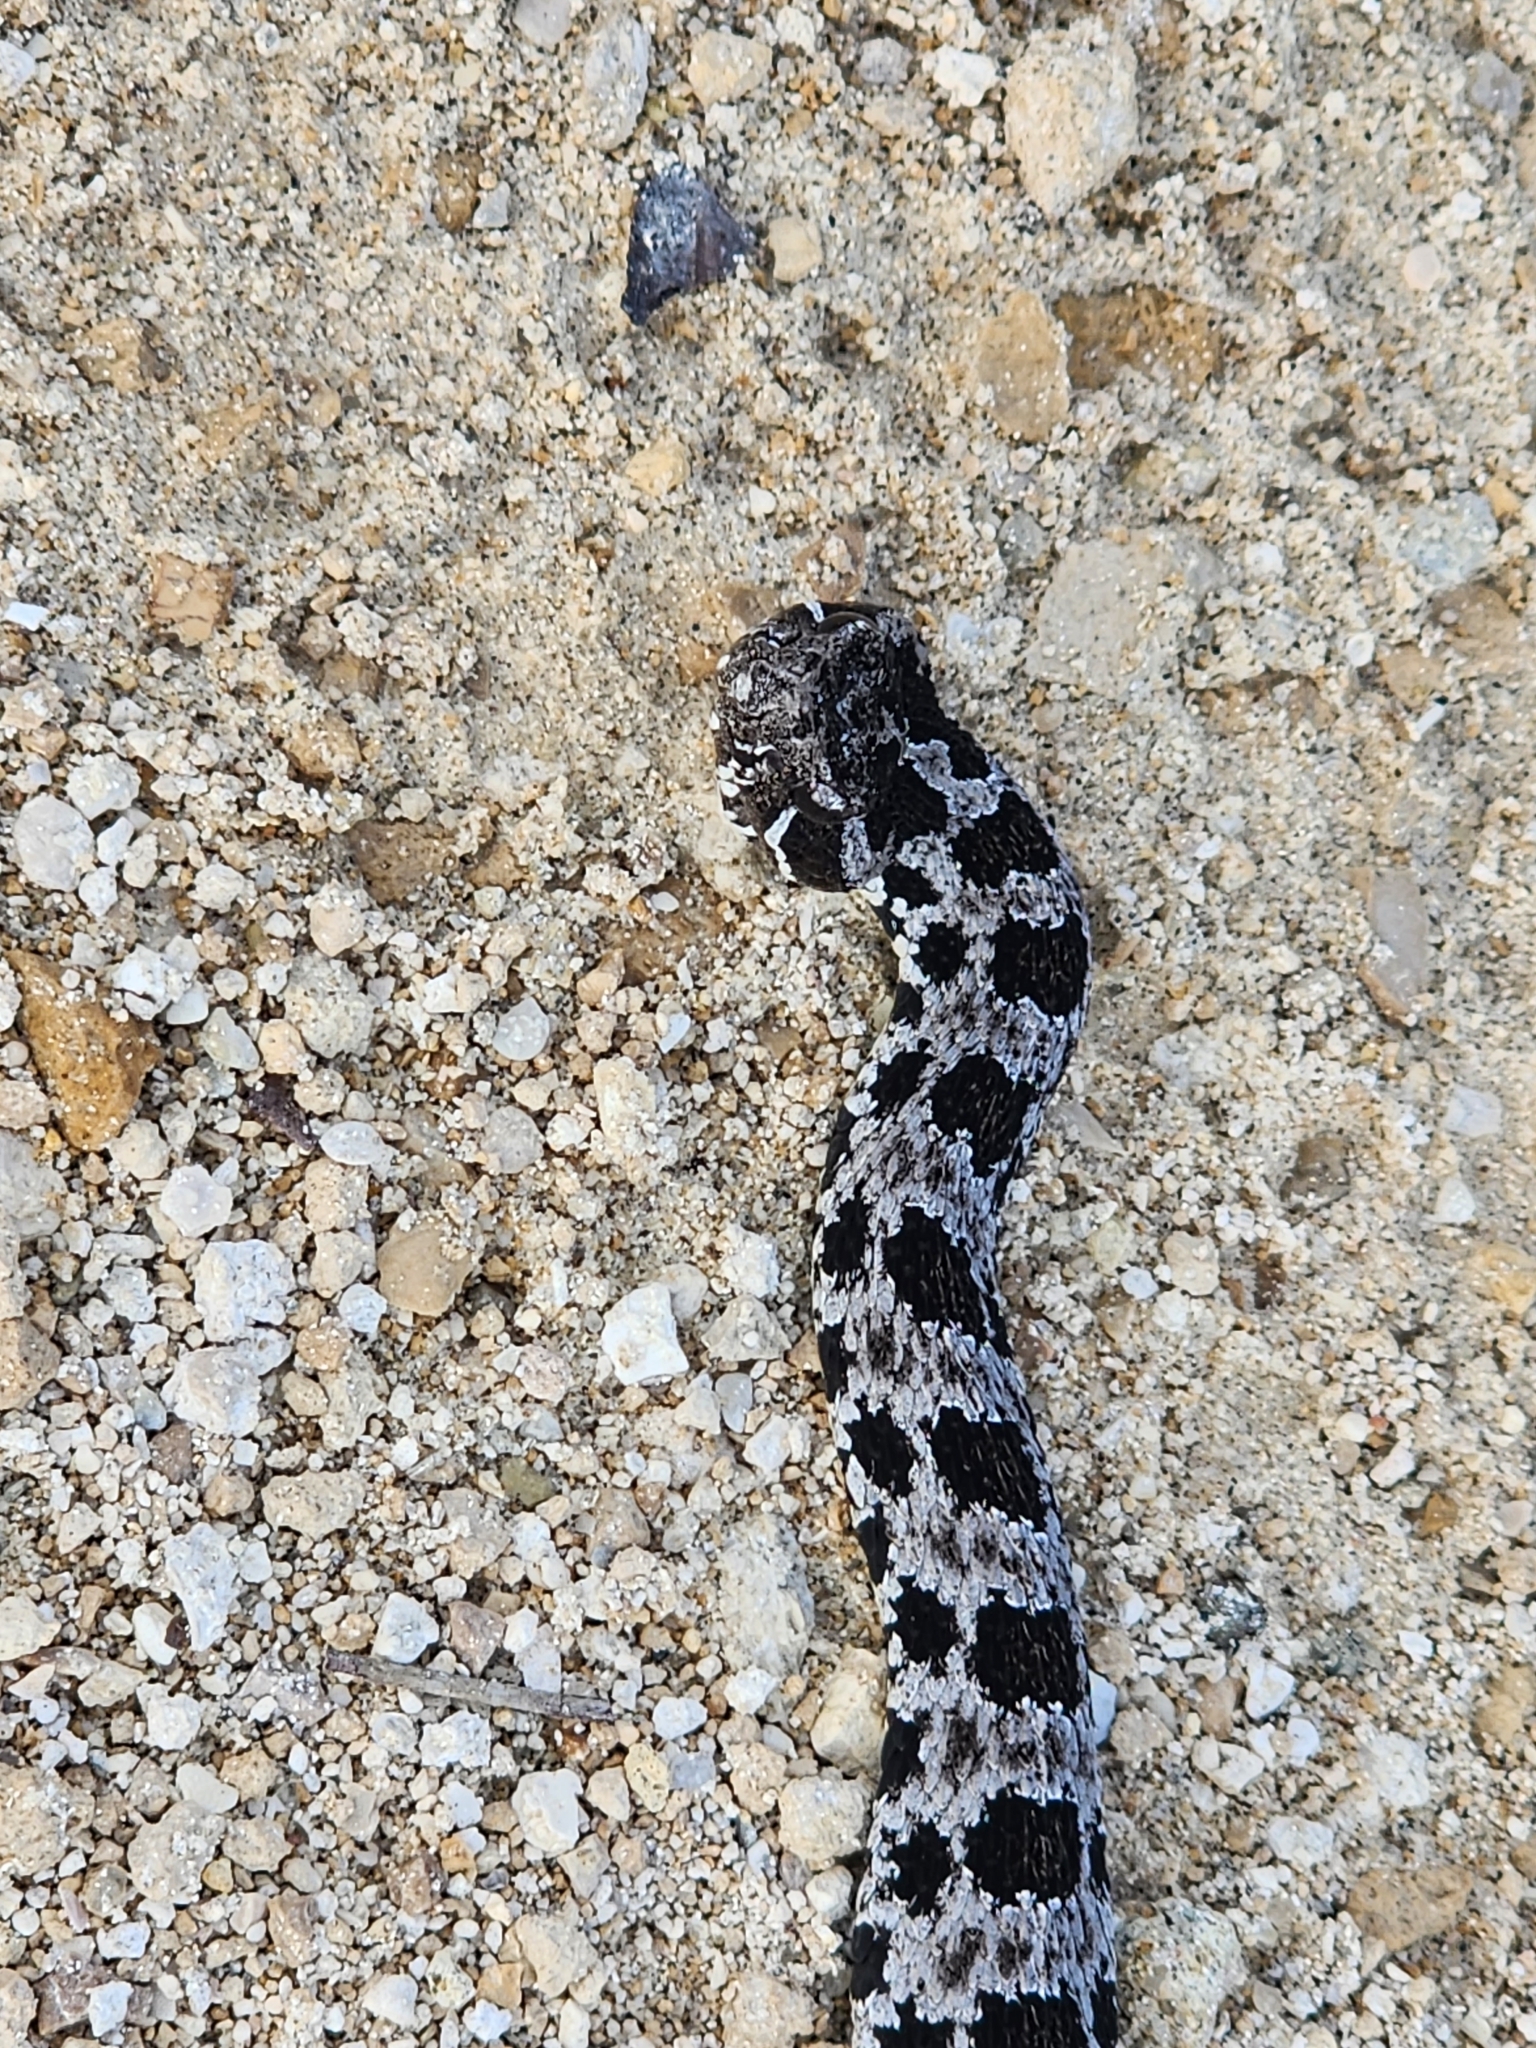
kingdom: Animalia
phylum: Chordata
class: Squamata
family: Viperidae
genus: Sistrurus
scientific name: Sistrurus miliarius
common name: Pygmy rattlesnake
